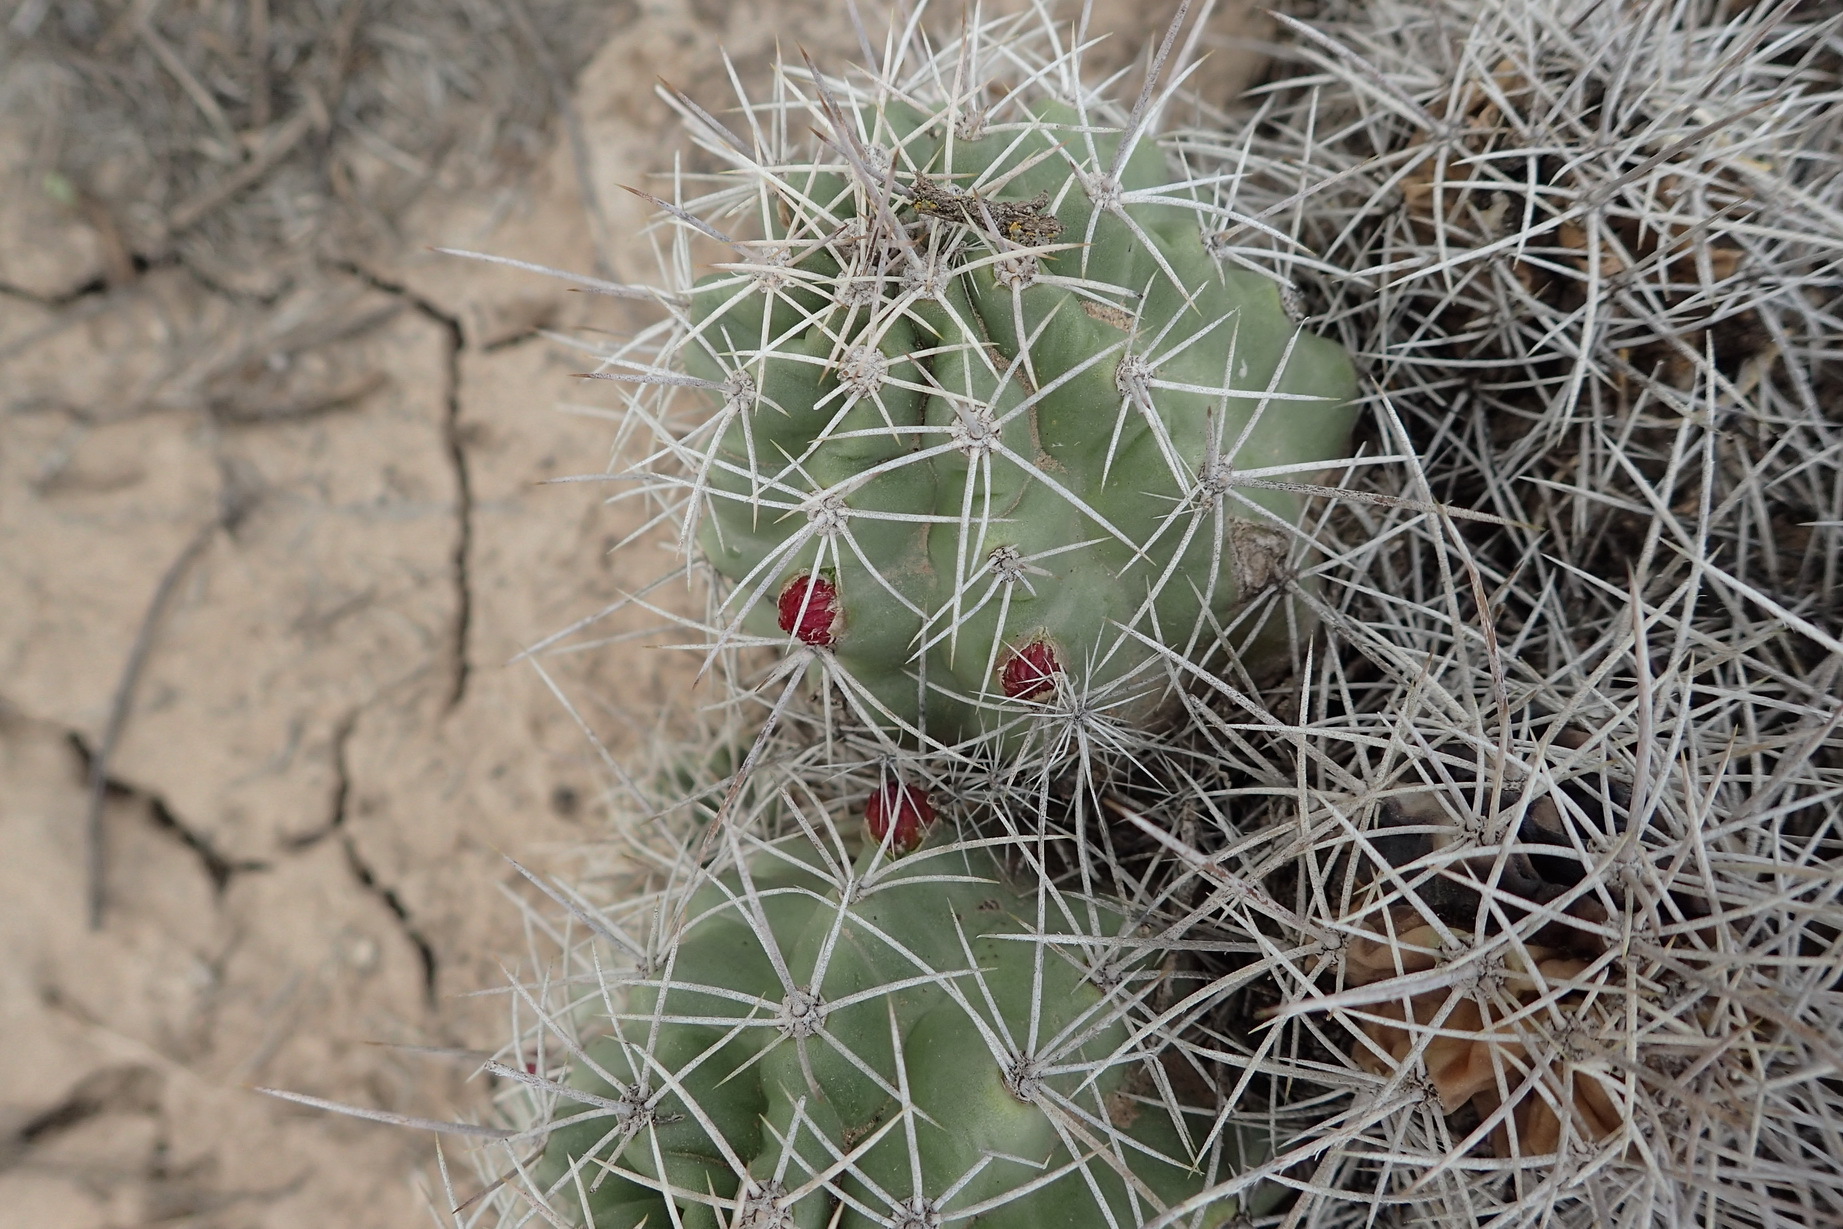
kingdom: Plantae
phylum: Tracheophyta
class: Magnoliopsida
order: Caryophyllales
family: Cactaceae
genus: Echinocereus
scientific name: Echinocereus triglochidiatus
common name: Claretcup hedgehog
